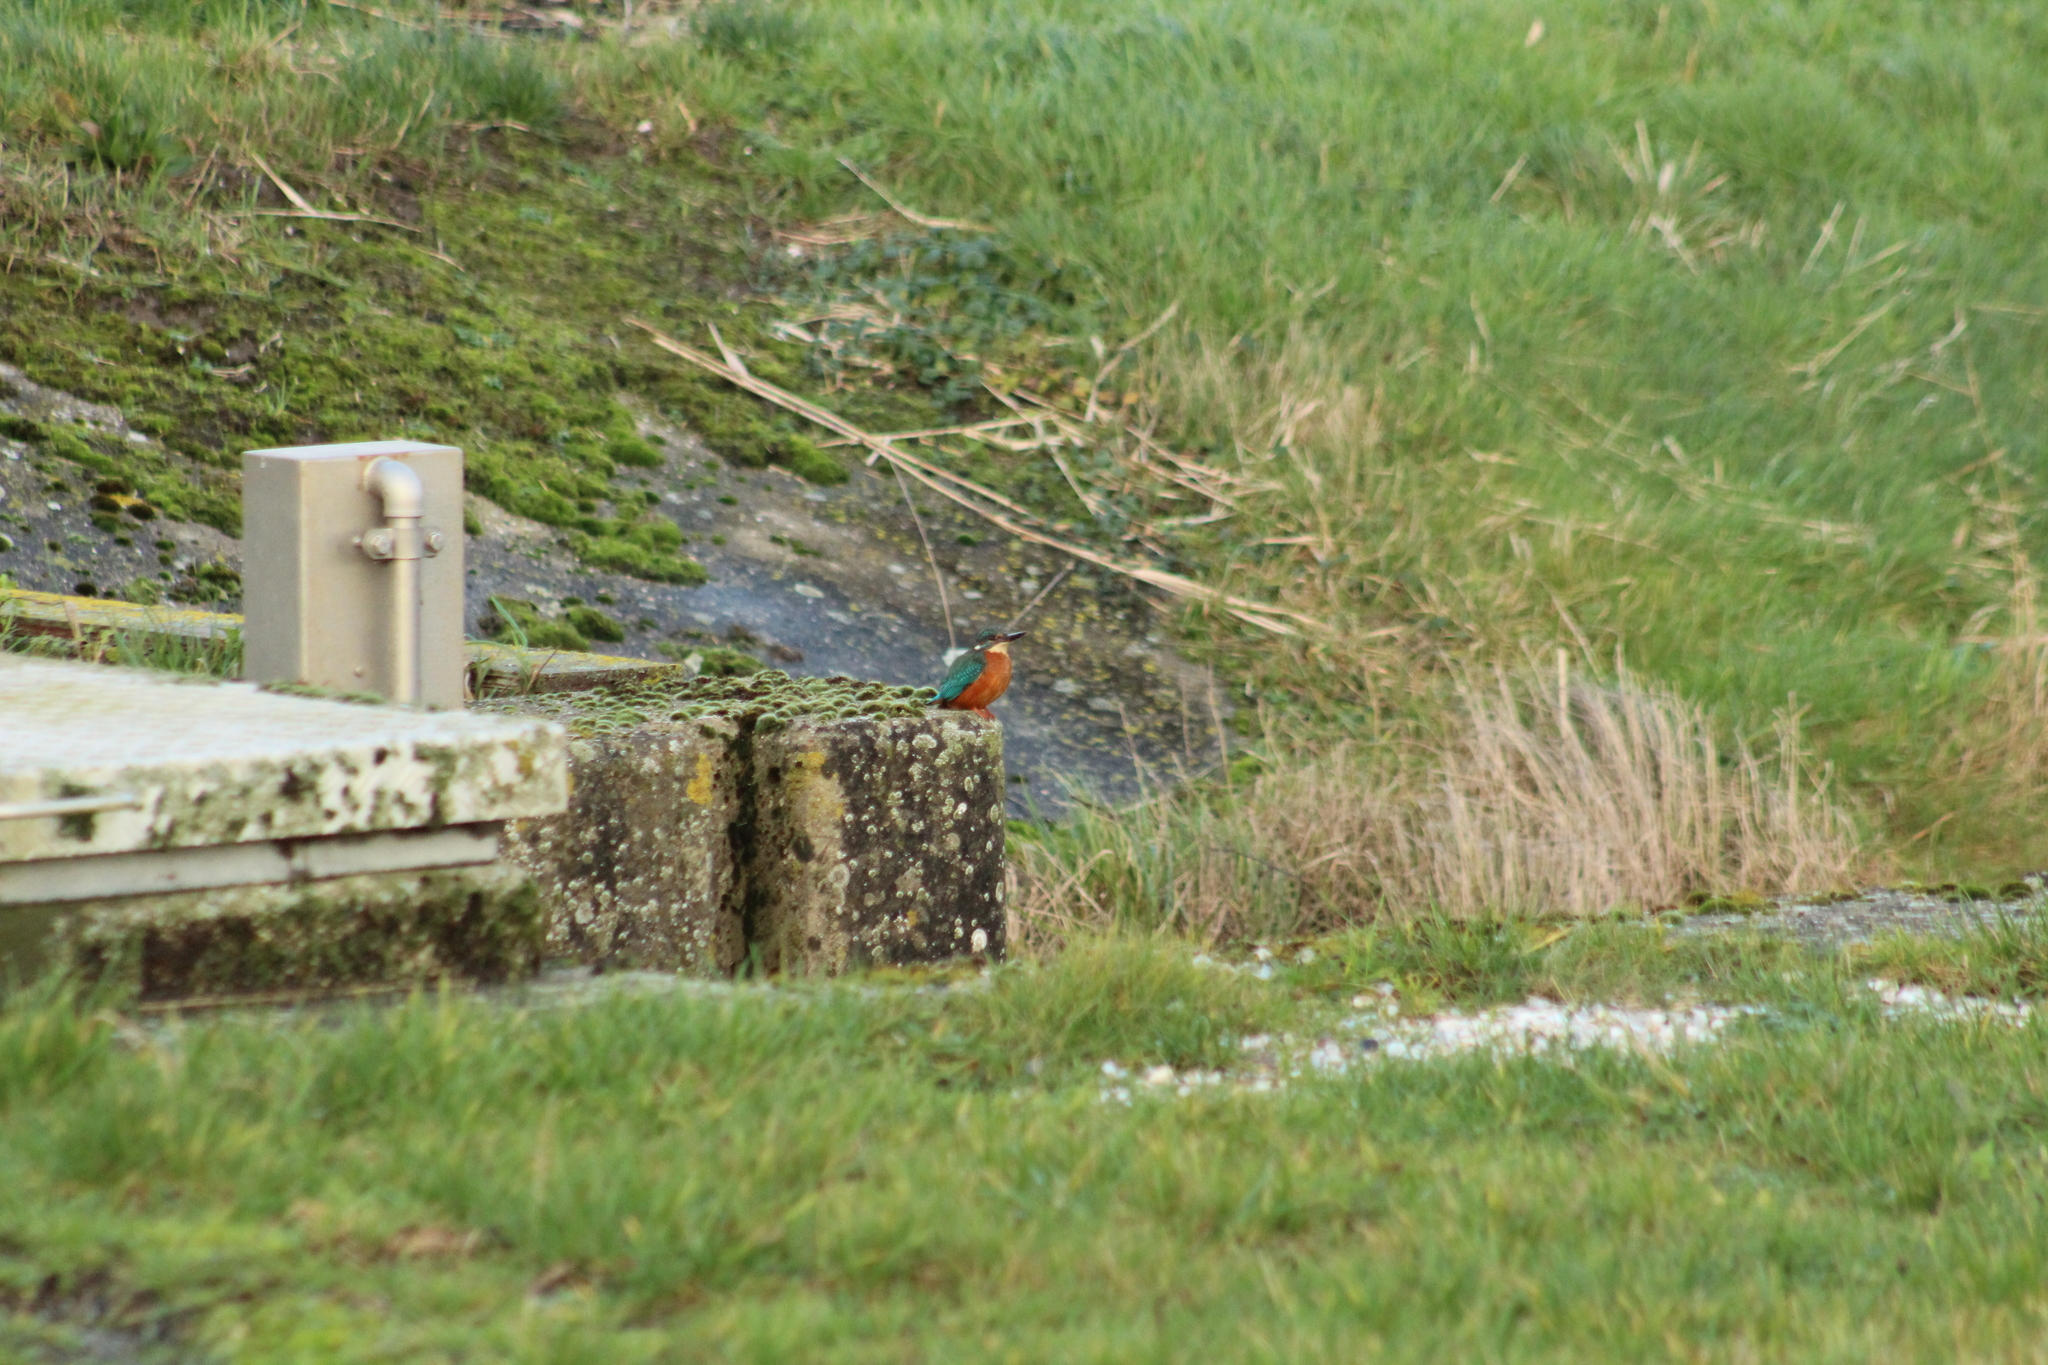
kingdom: Animalia
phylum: Chordata
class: Aves
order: Coraciiformes
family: Alcedinidae
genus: Alcedo
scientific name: Alcedo atthis
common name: Common kingfisher
